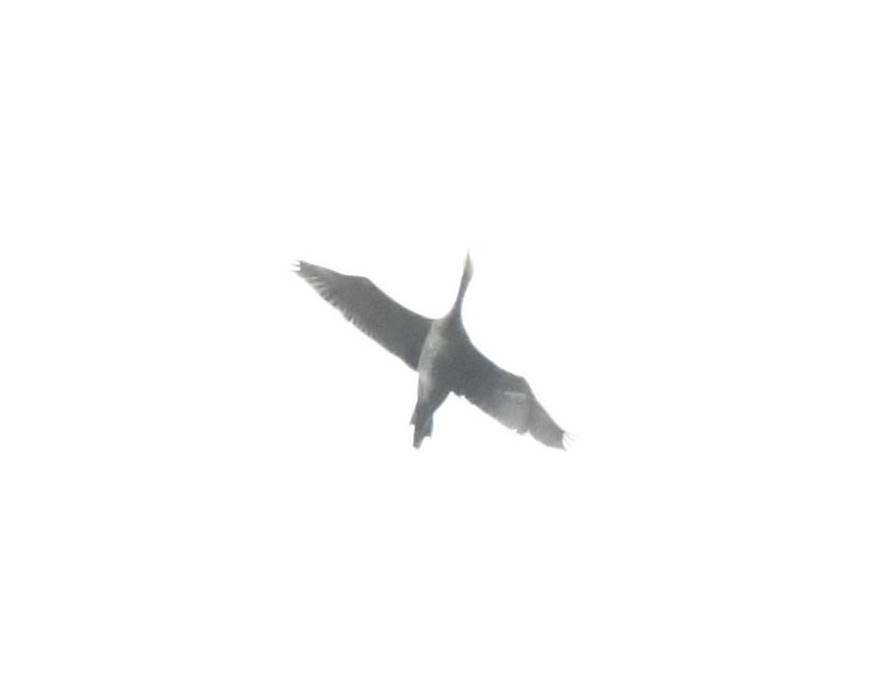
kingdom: Animalia
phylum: Chordata
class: Aves
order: Suliformes
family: Phalacrocoracidae
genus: Phalacrocorax
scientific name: Phalacrocorax carbo
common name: Great cormorant
